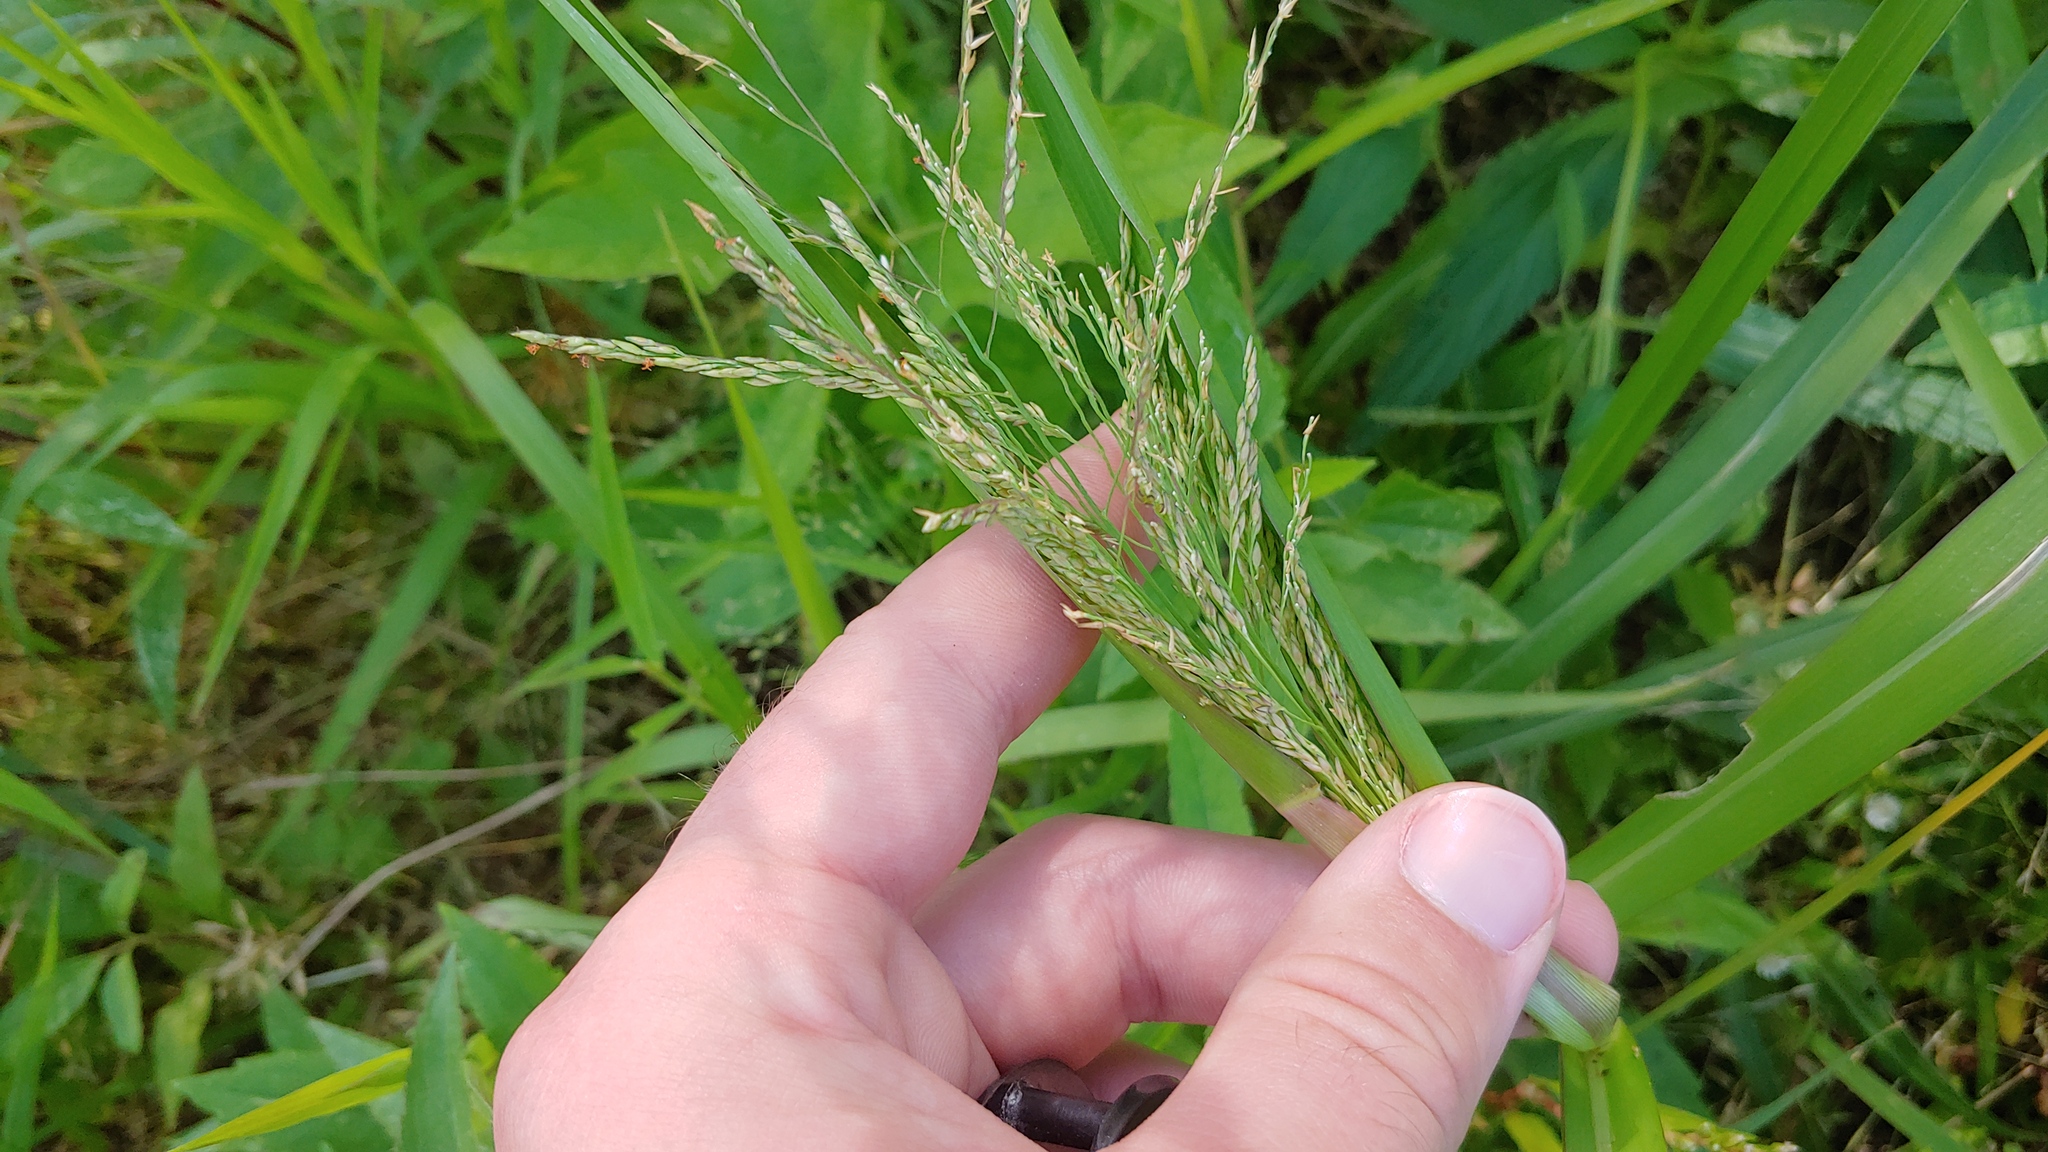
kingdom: Plantae
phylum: Tracheophyta
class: Liliopsida
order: Poales
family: Poaceae
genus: Panicum
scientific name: Panicum dichotomiflorum
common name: Autumn millet
